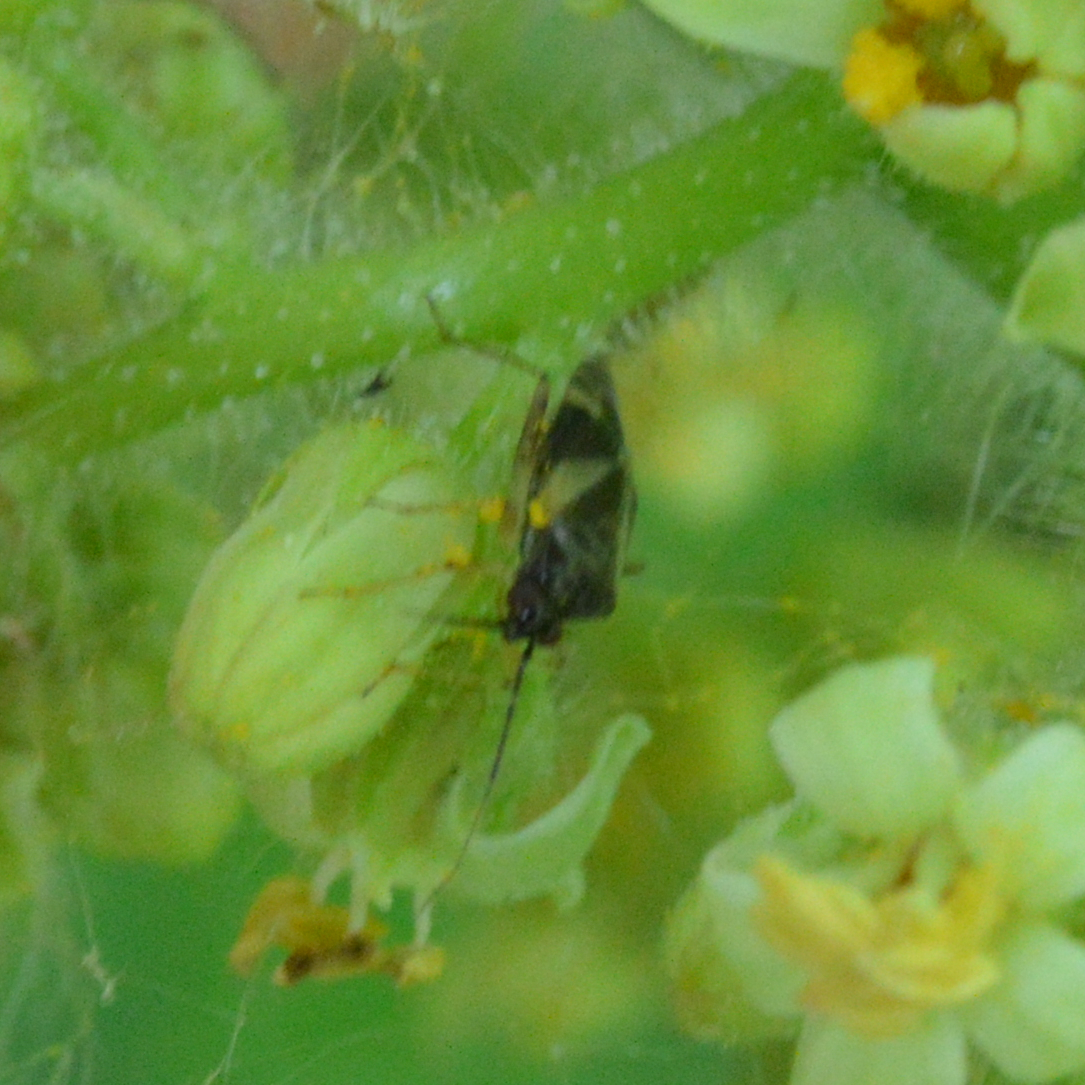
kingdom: Animalia
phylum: Arthropoda
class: Insecta
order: Hemiptera
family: Miridae
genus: Plagiognathus
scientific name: Plagiognathus obscurus
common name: Obscure plant bug
